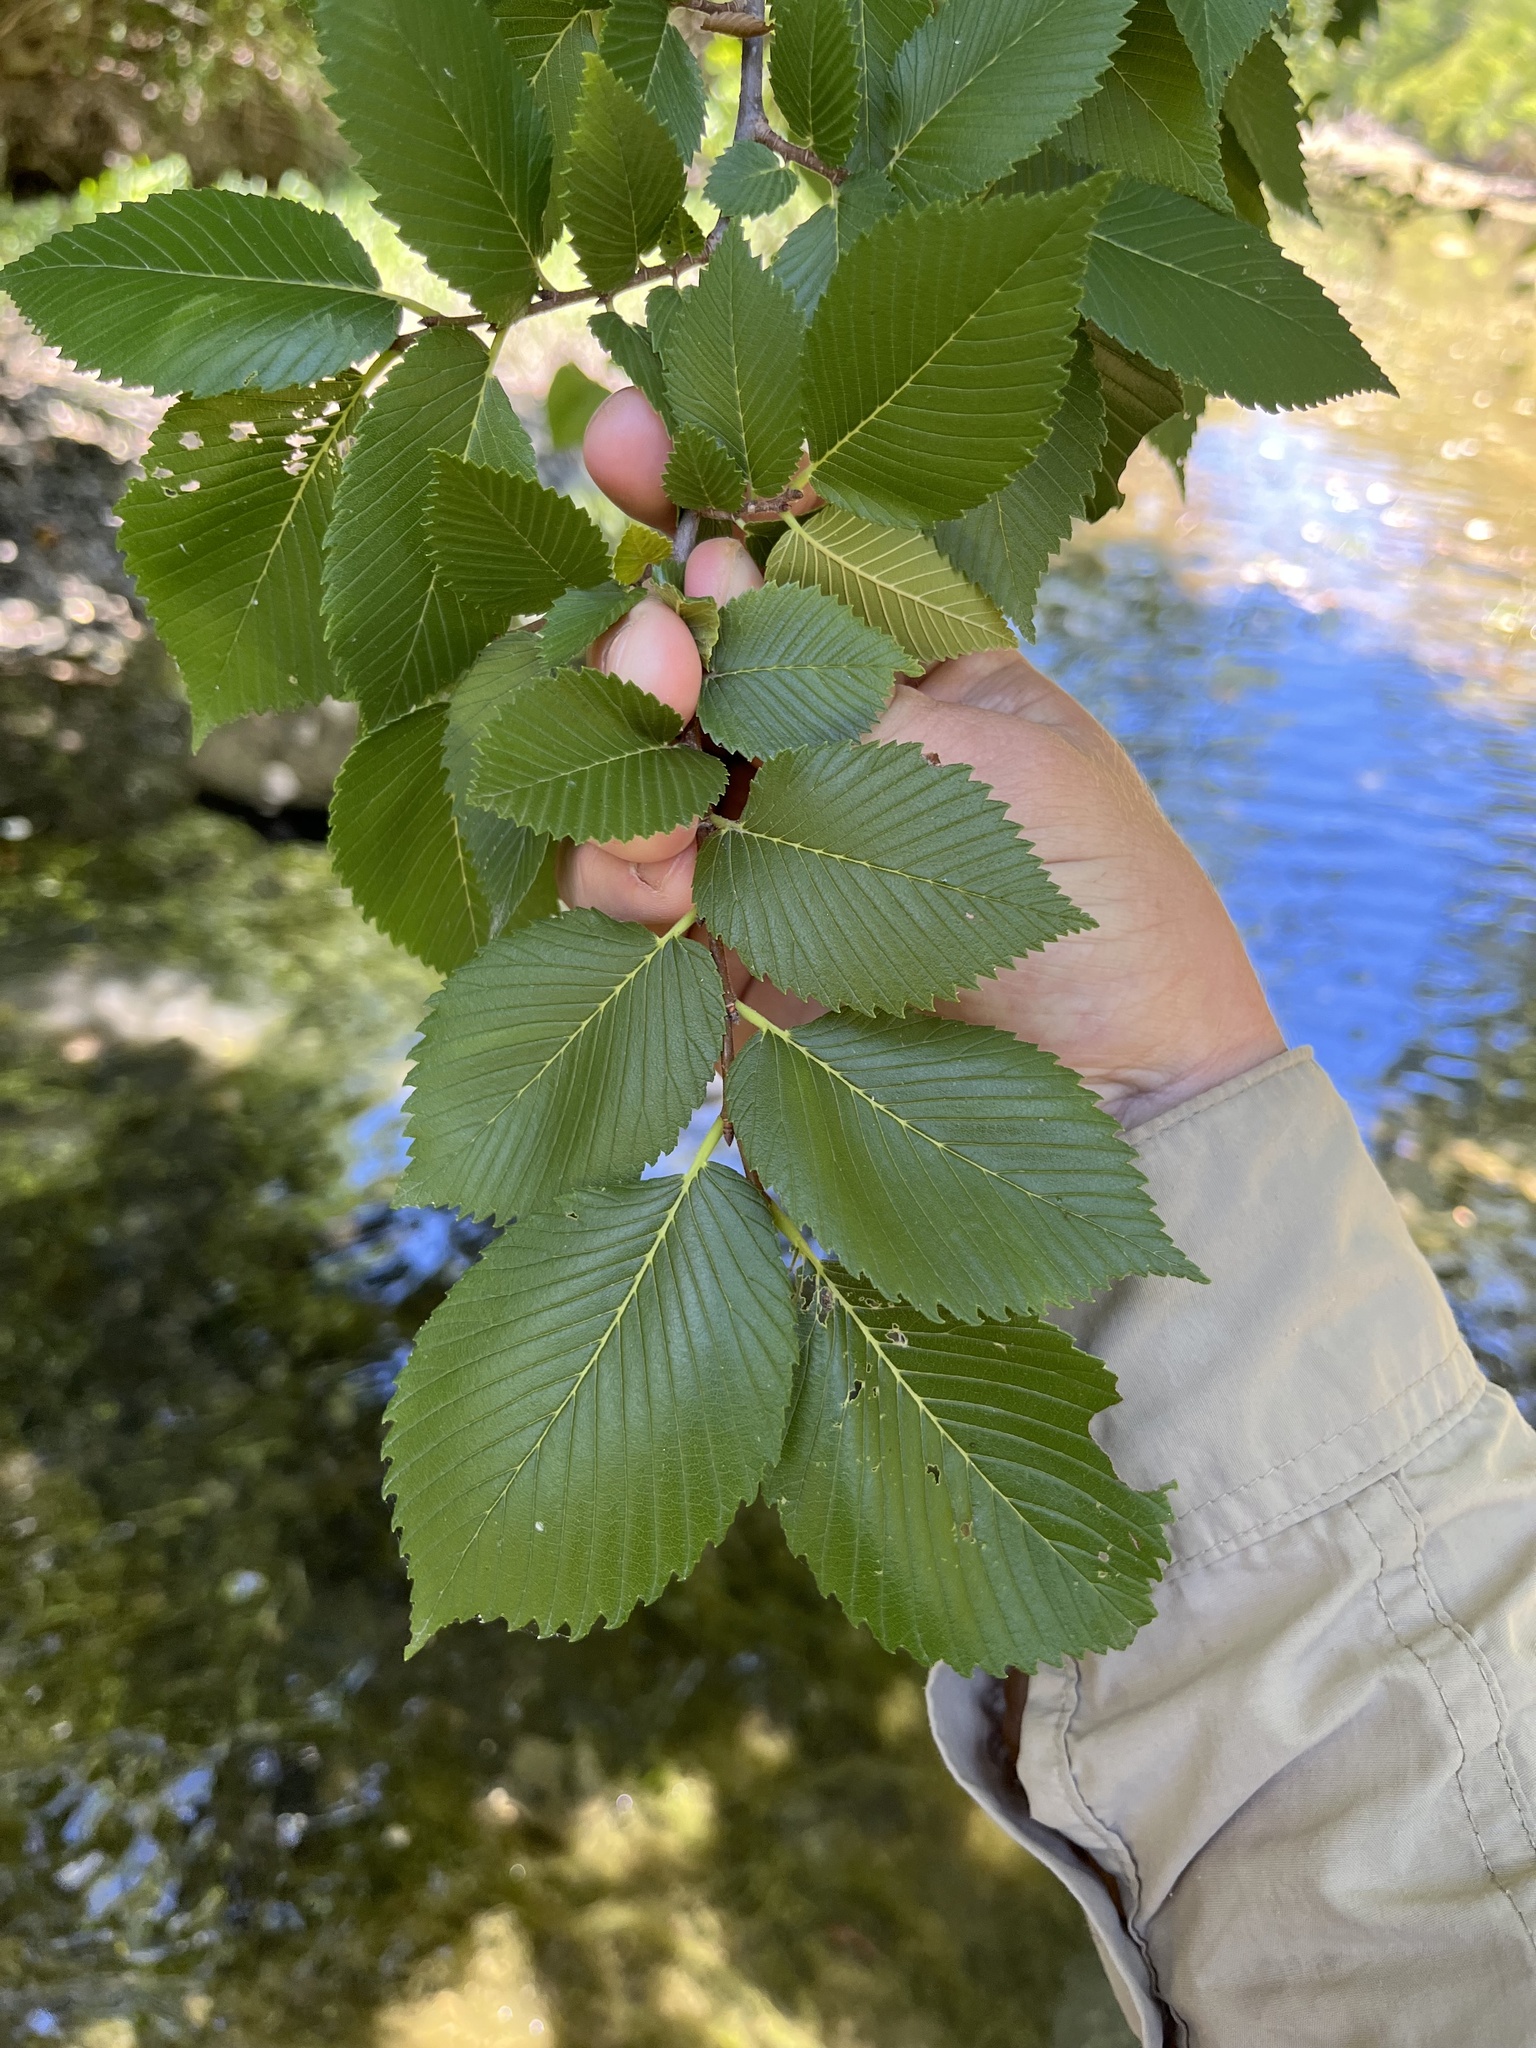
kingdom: Plantae
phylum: Tracheophyta
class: Magnoliopsida
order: Rosales
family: Ulmaceae
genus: Ulmus
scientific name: Ulmus rubra
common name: Slippery elm
